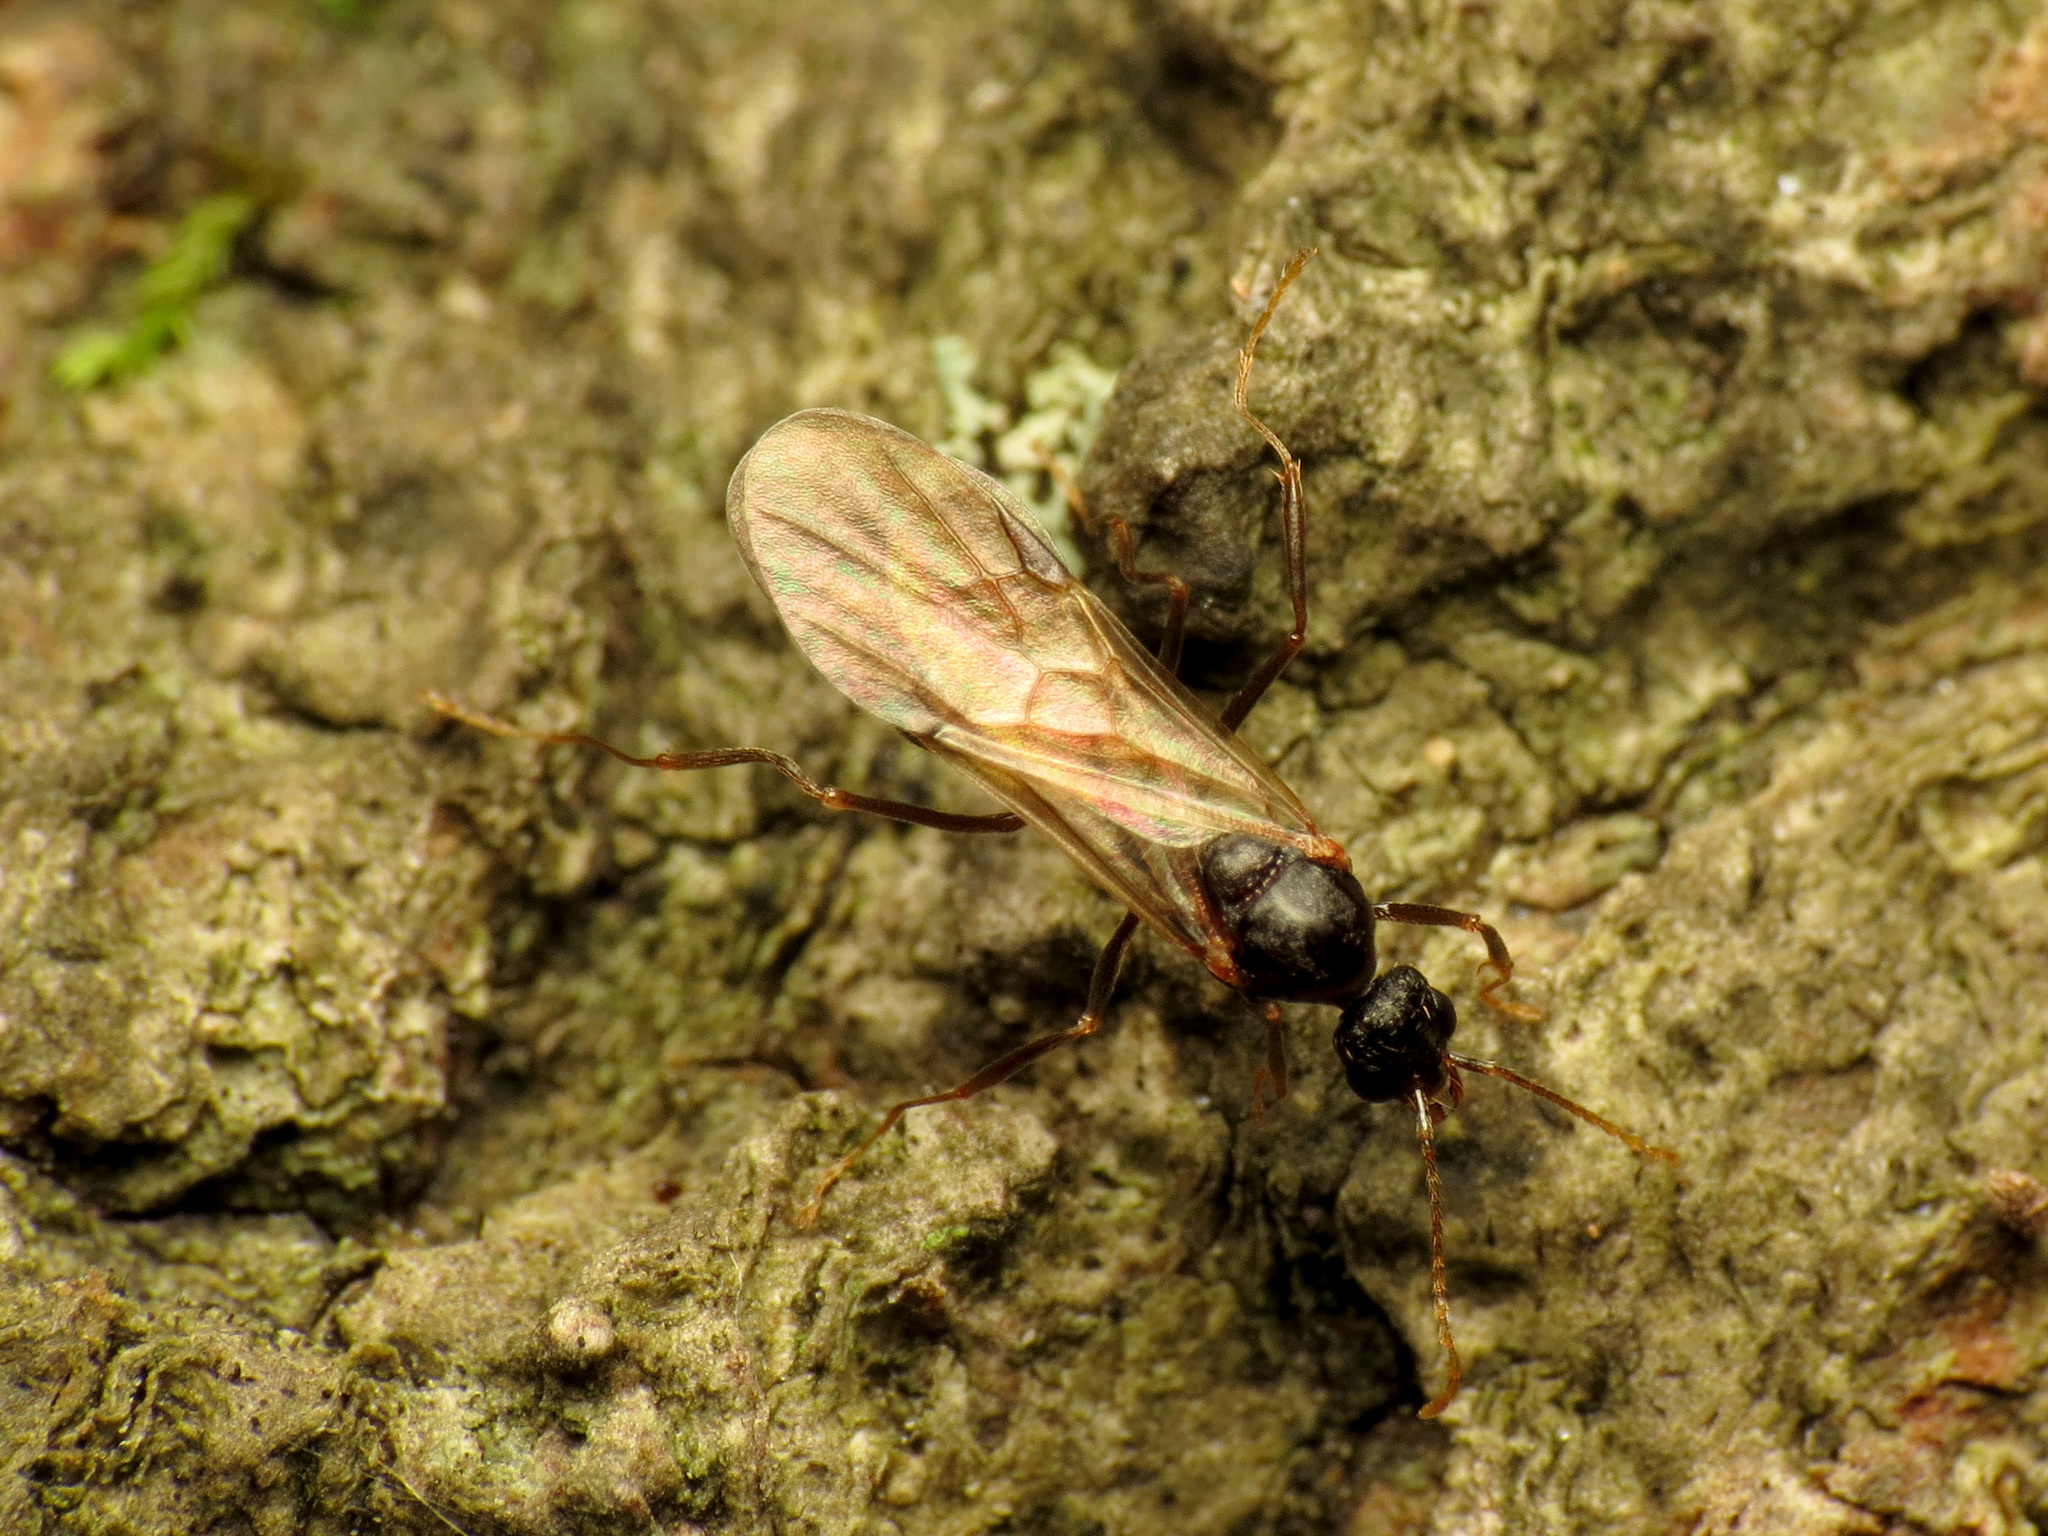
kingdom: Animalia
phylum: Arthropoda
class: Insecta
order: Hymenoptera
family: Formicidae
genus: Aphaenogaster
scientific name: Aphaenogaster fulva
